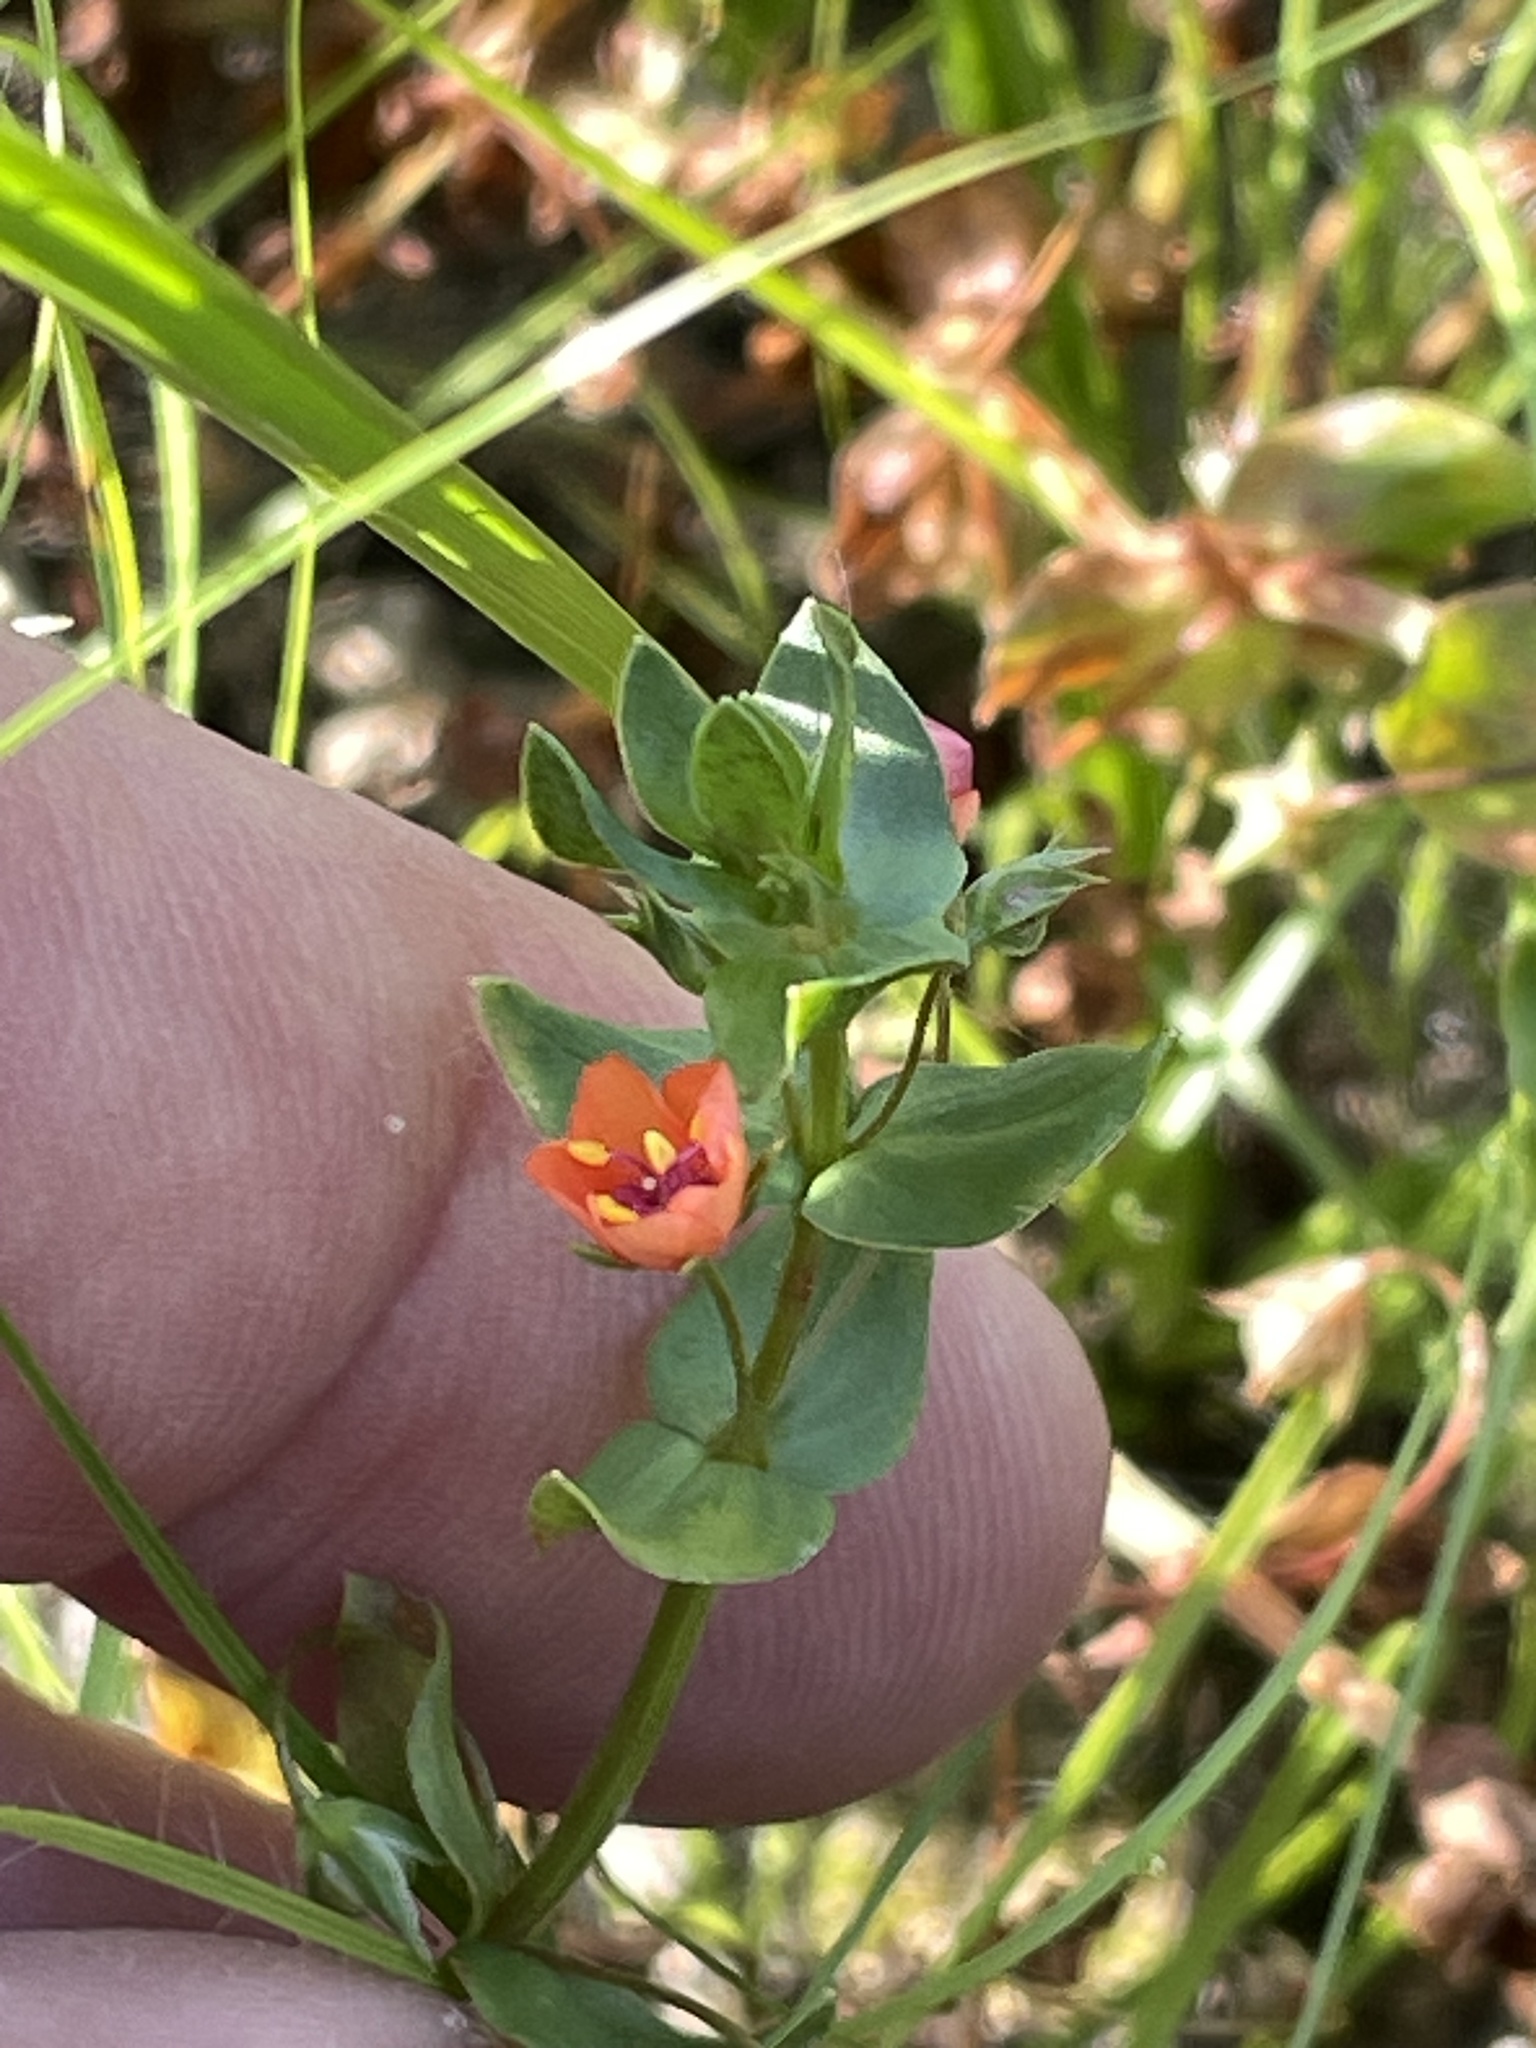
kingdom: Plantae
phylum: Tracheophyta
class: Magnoliopsida
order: Ericales
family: Primulaceae
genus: Lysimachia
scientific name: Lysimachia arvensis
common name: Scarlet pimpernel
